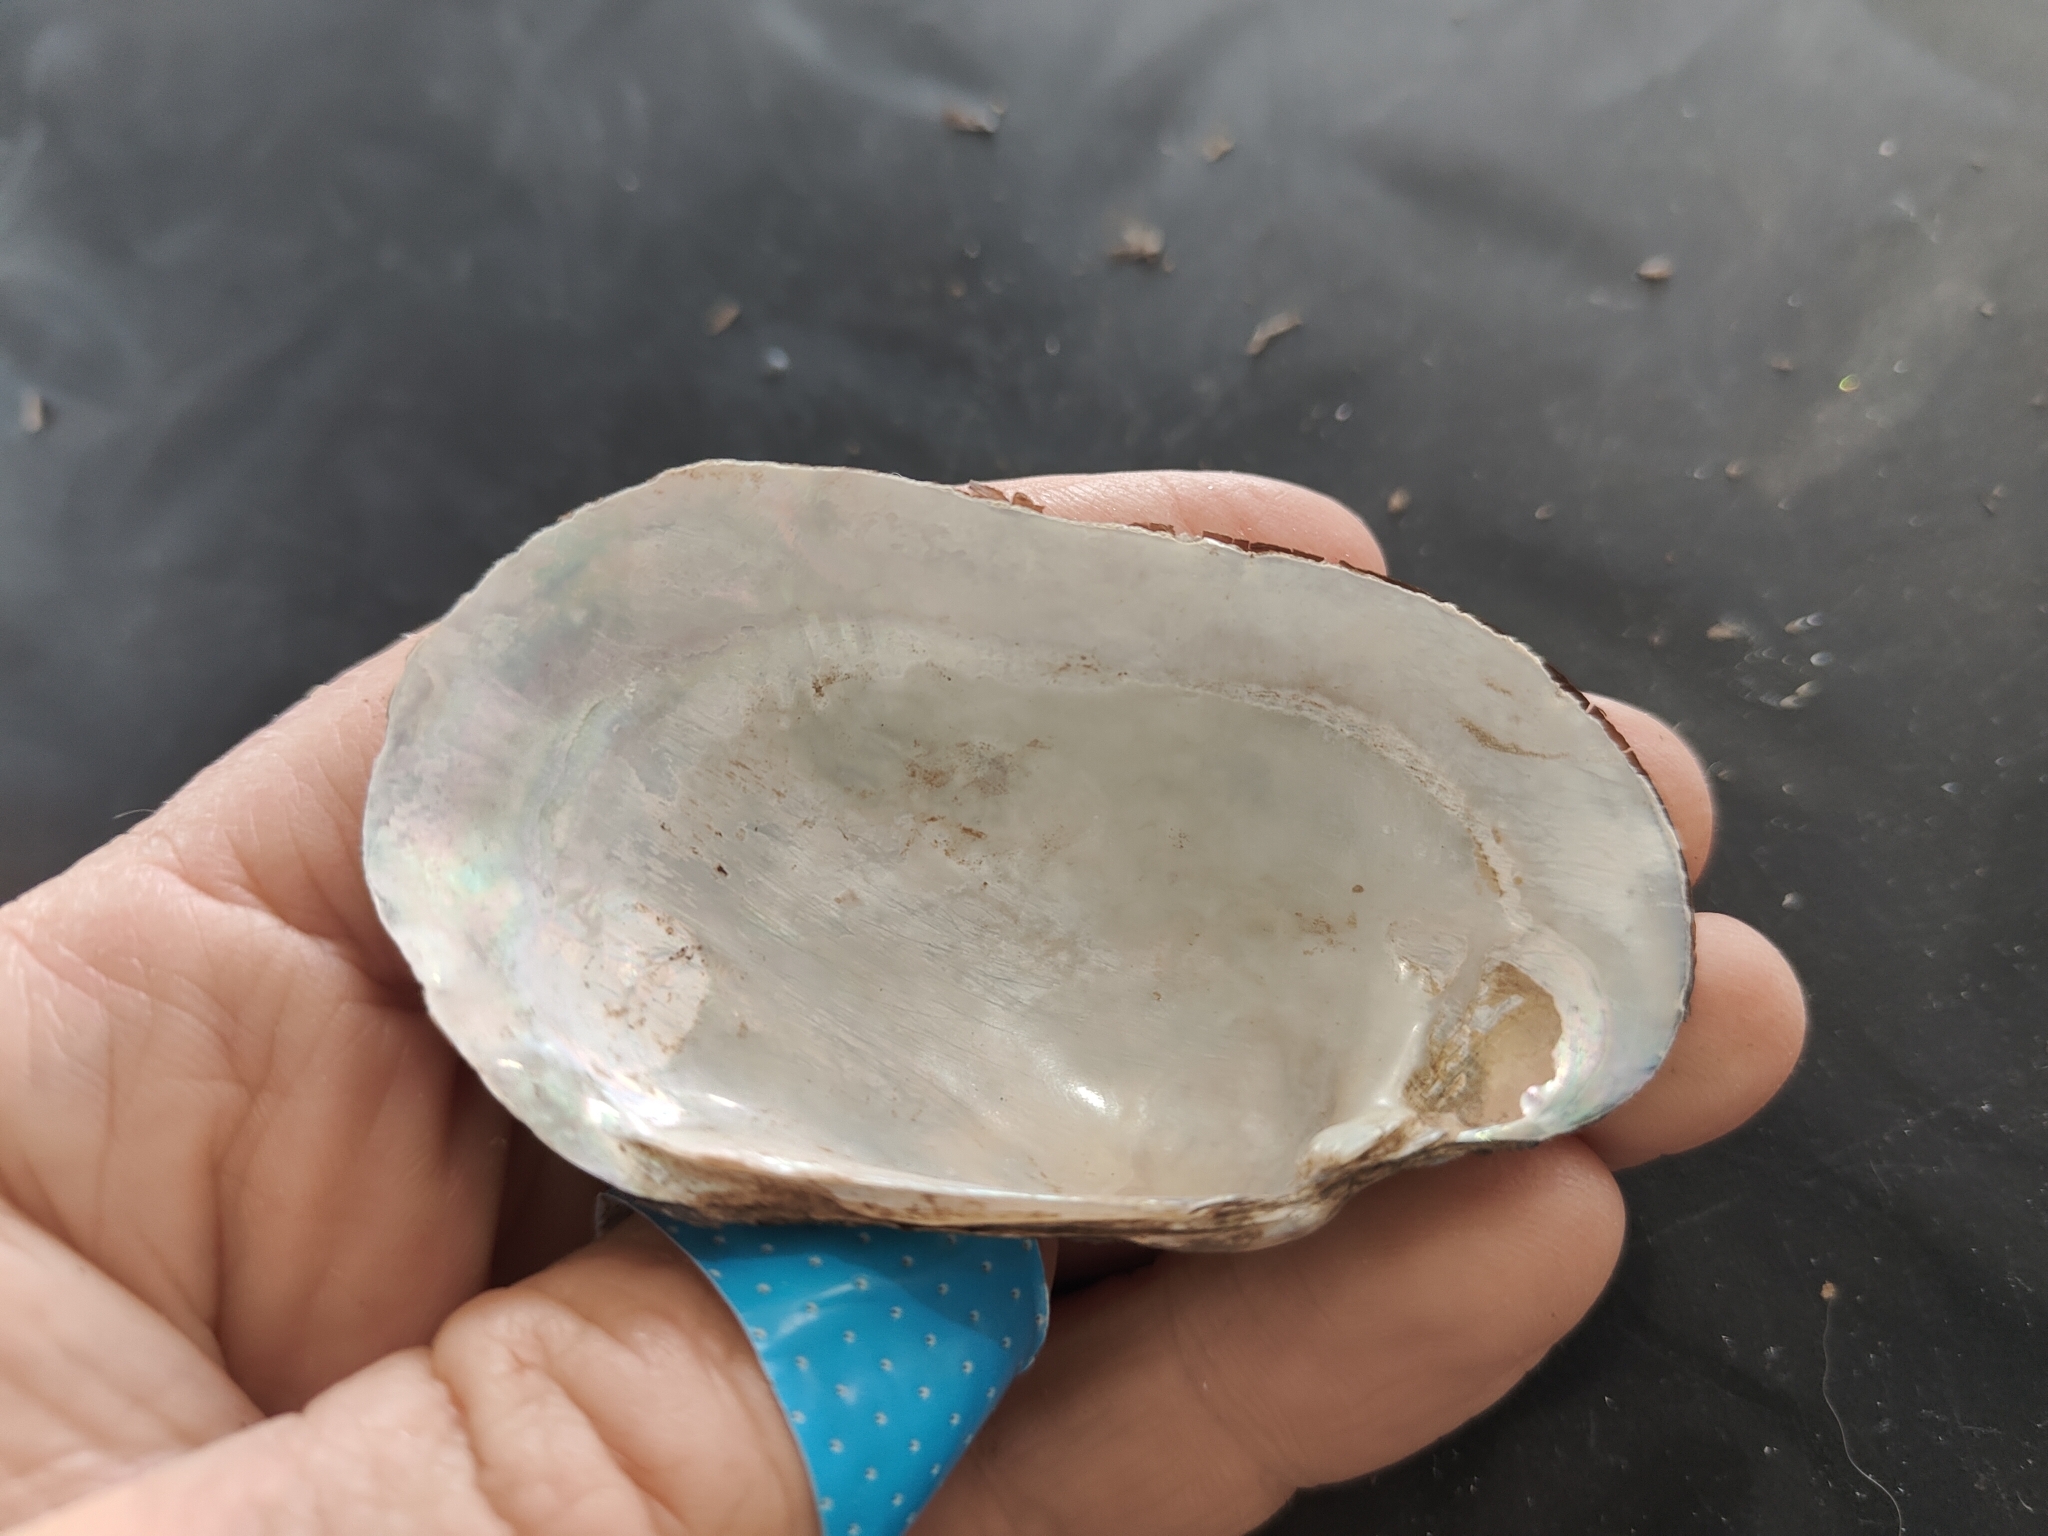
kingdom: Animalia
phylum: Mollusca
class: Bivalvia
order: Unionida
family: Unionidae
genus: Lampsilis
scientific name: Lampsilis siliquoidea
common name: Fatmucket
